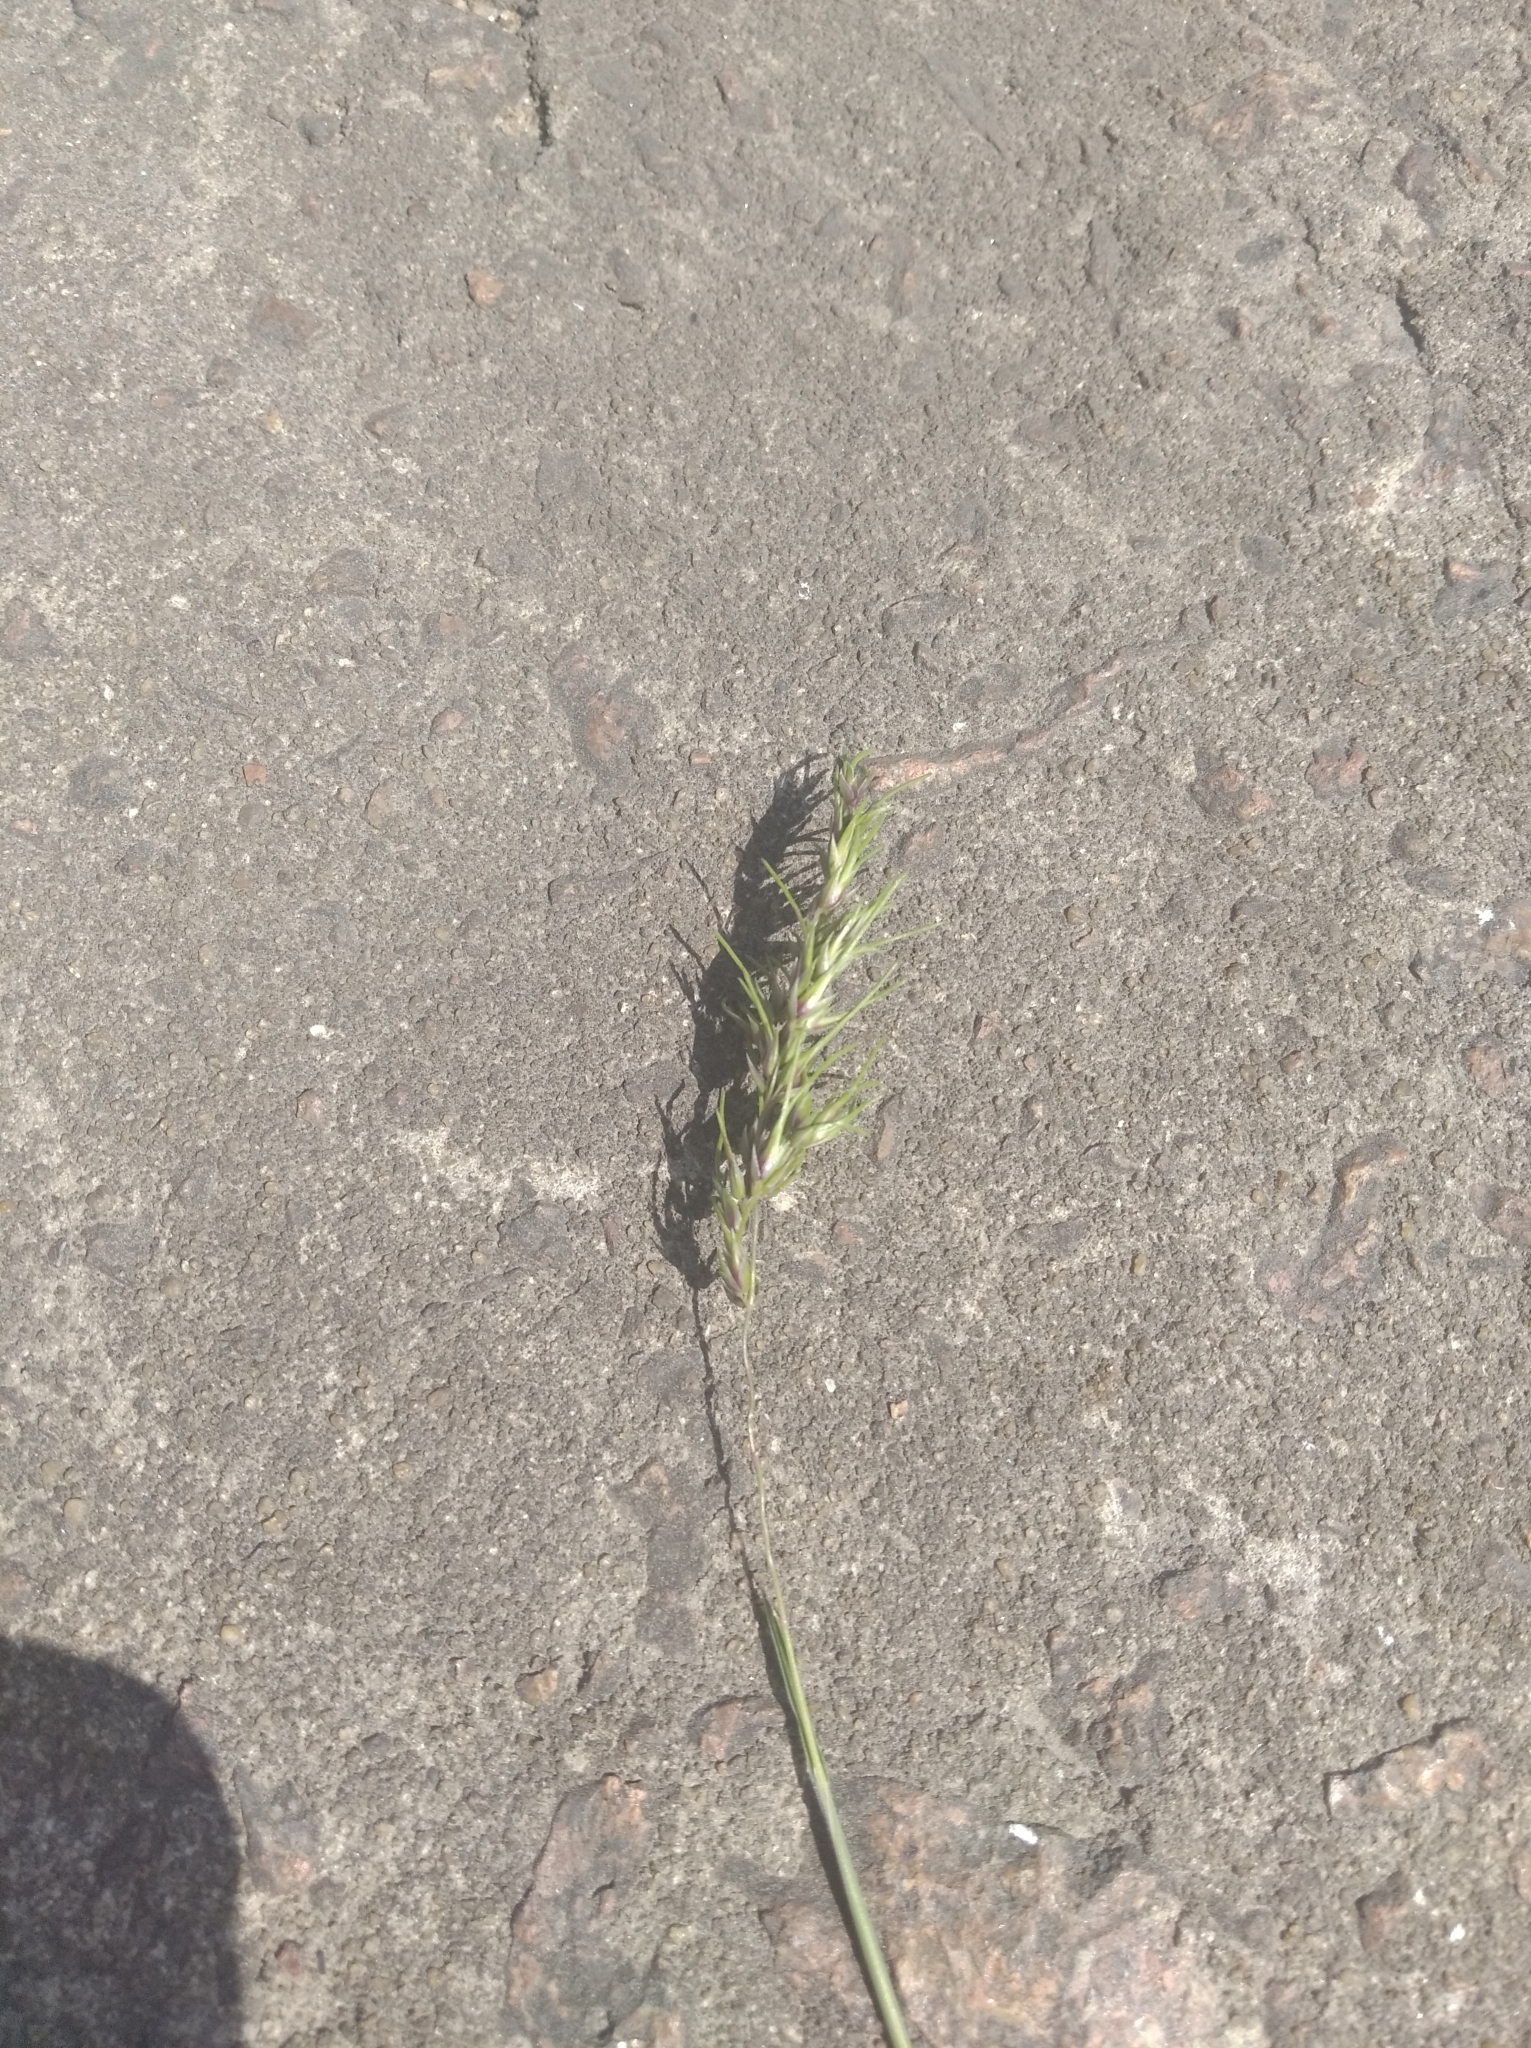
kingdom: Plantae
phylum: Tracheophyta
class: Liliopsida
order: Poales
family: Poaceae
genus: Poa
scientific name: Poa bulbosa
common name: Bulbous bluegrass
